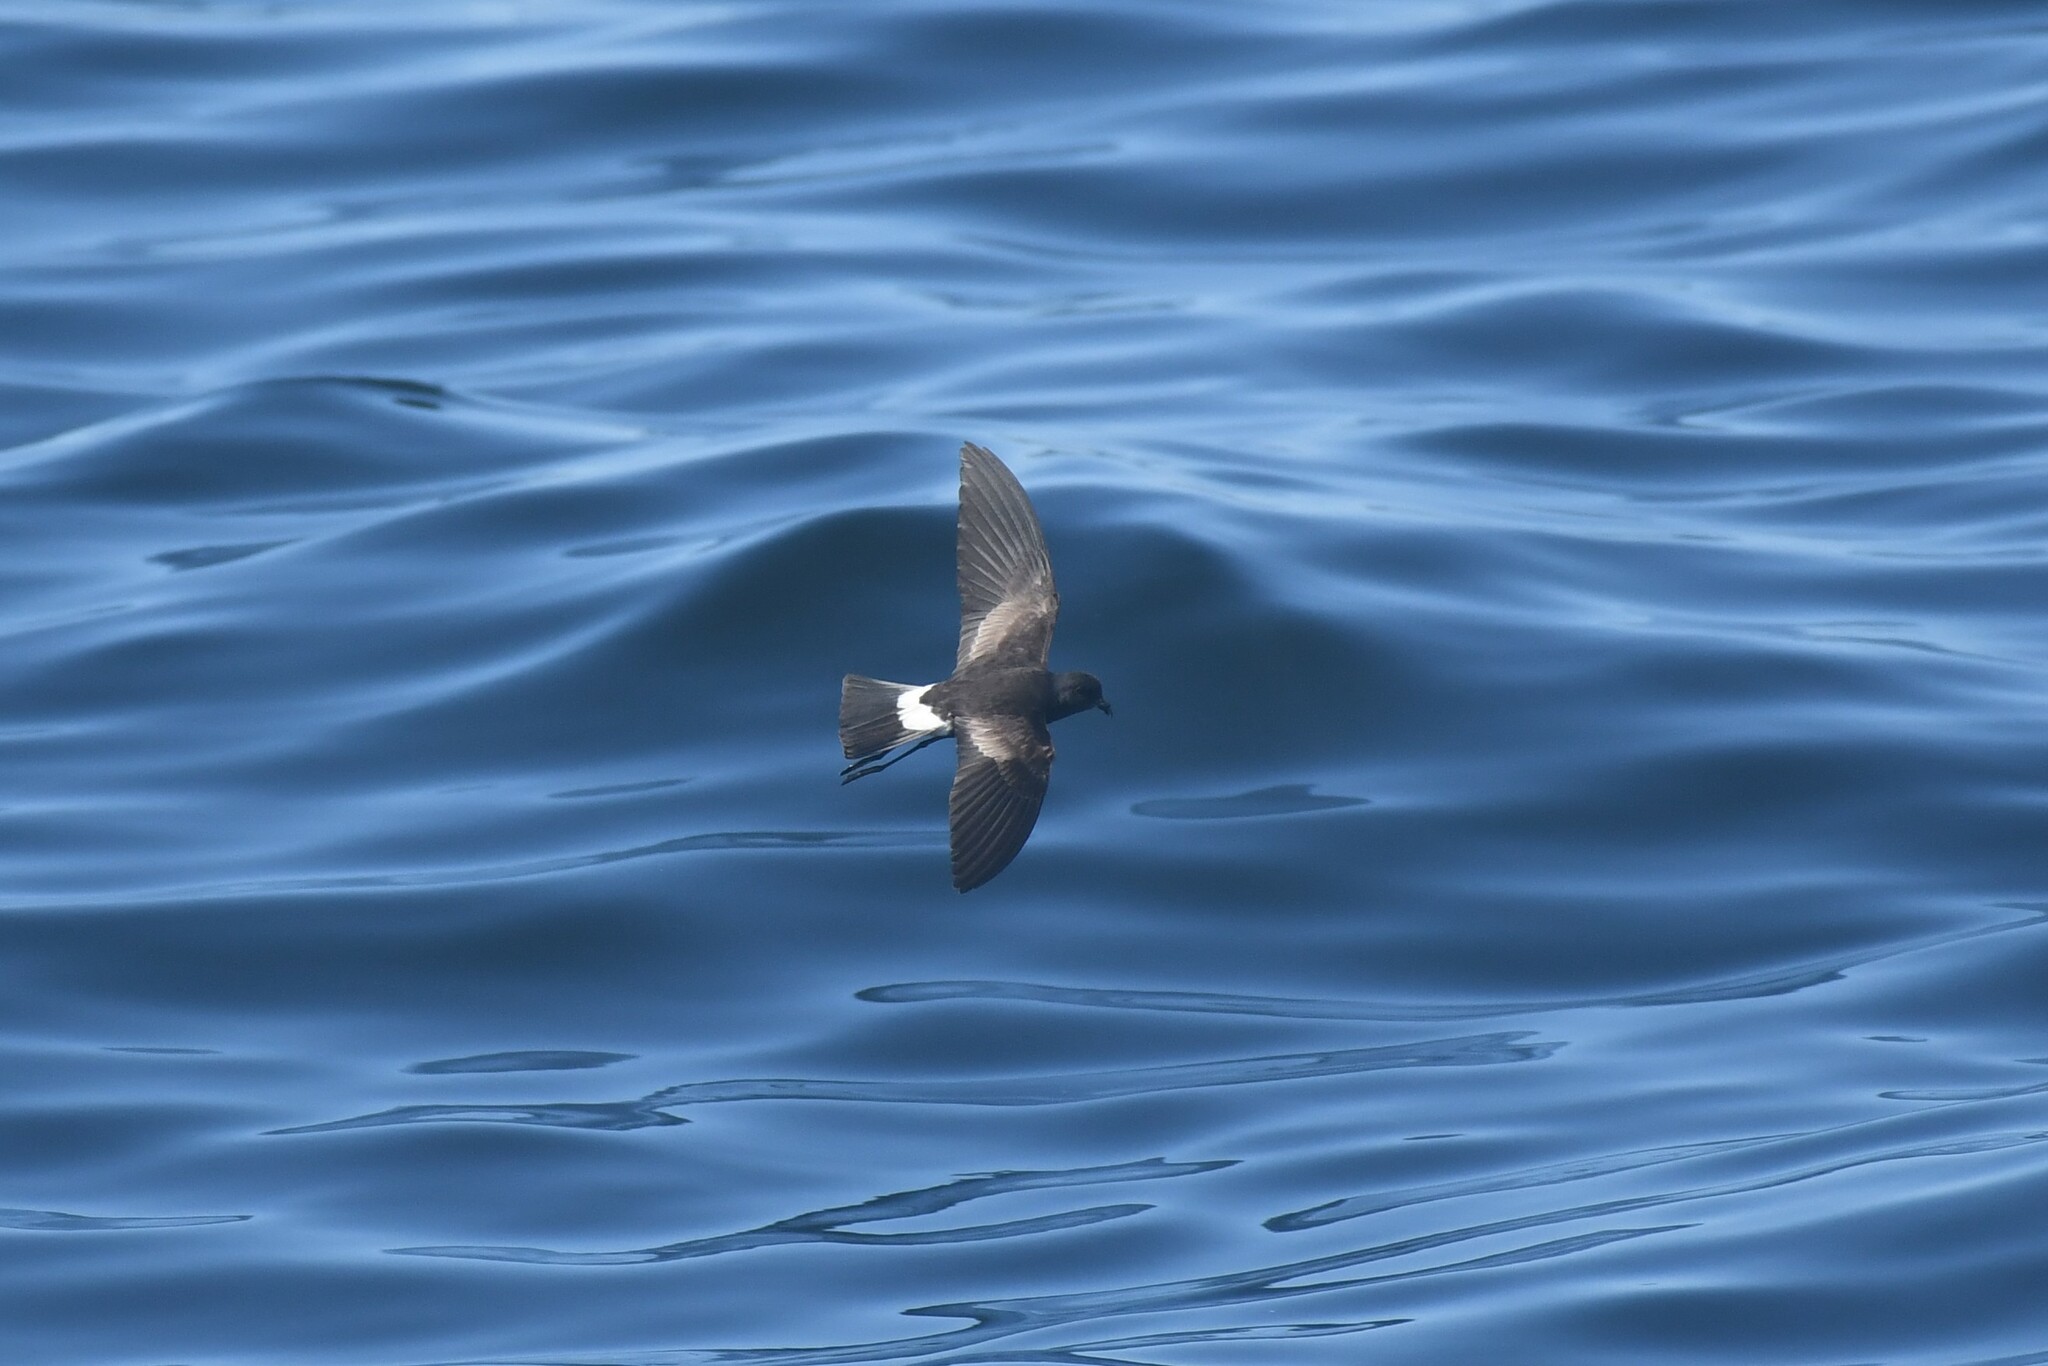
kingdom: Animalia
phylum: Chordata
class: Aves
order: Procellariiformes
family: Hydrobatidae
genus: Oceanites
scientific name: Oceanites oceanicus
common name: Wilson's storm petrel
